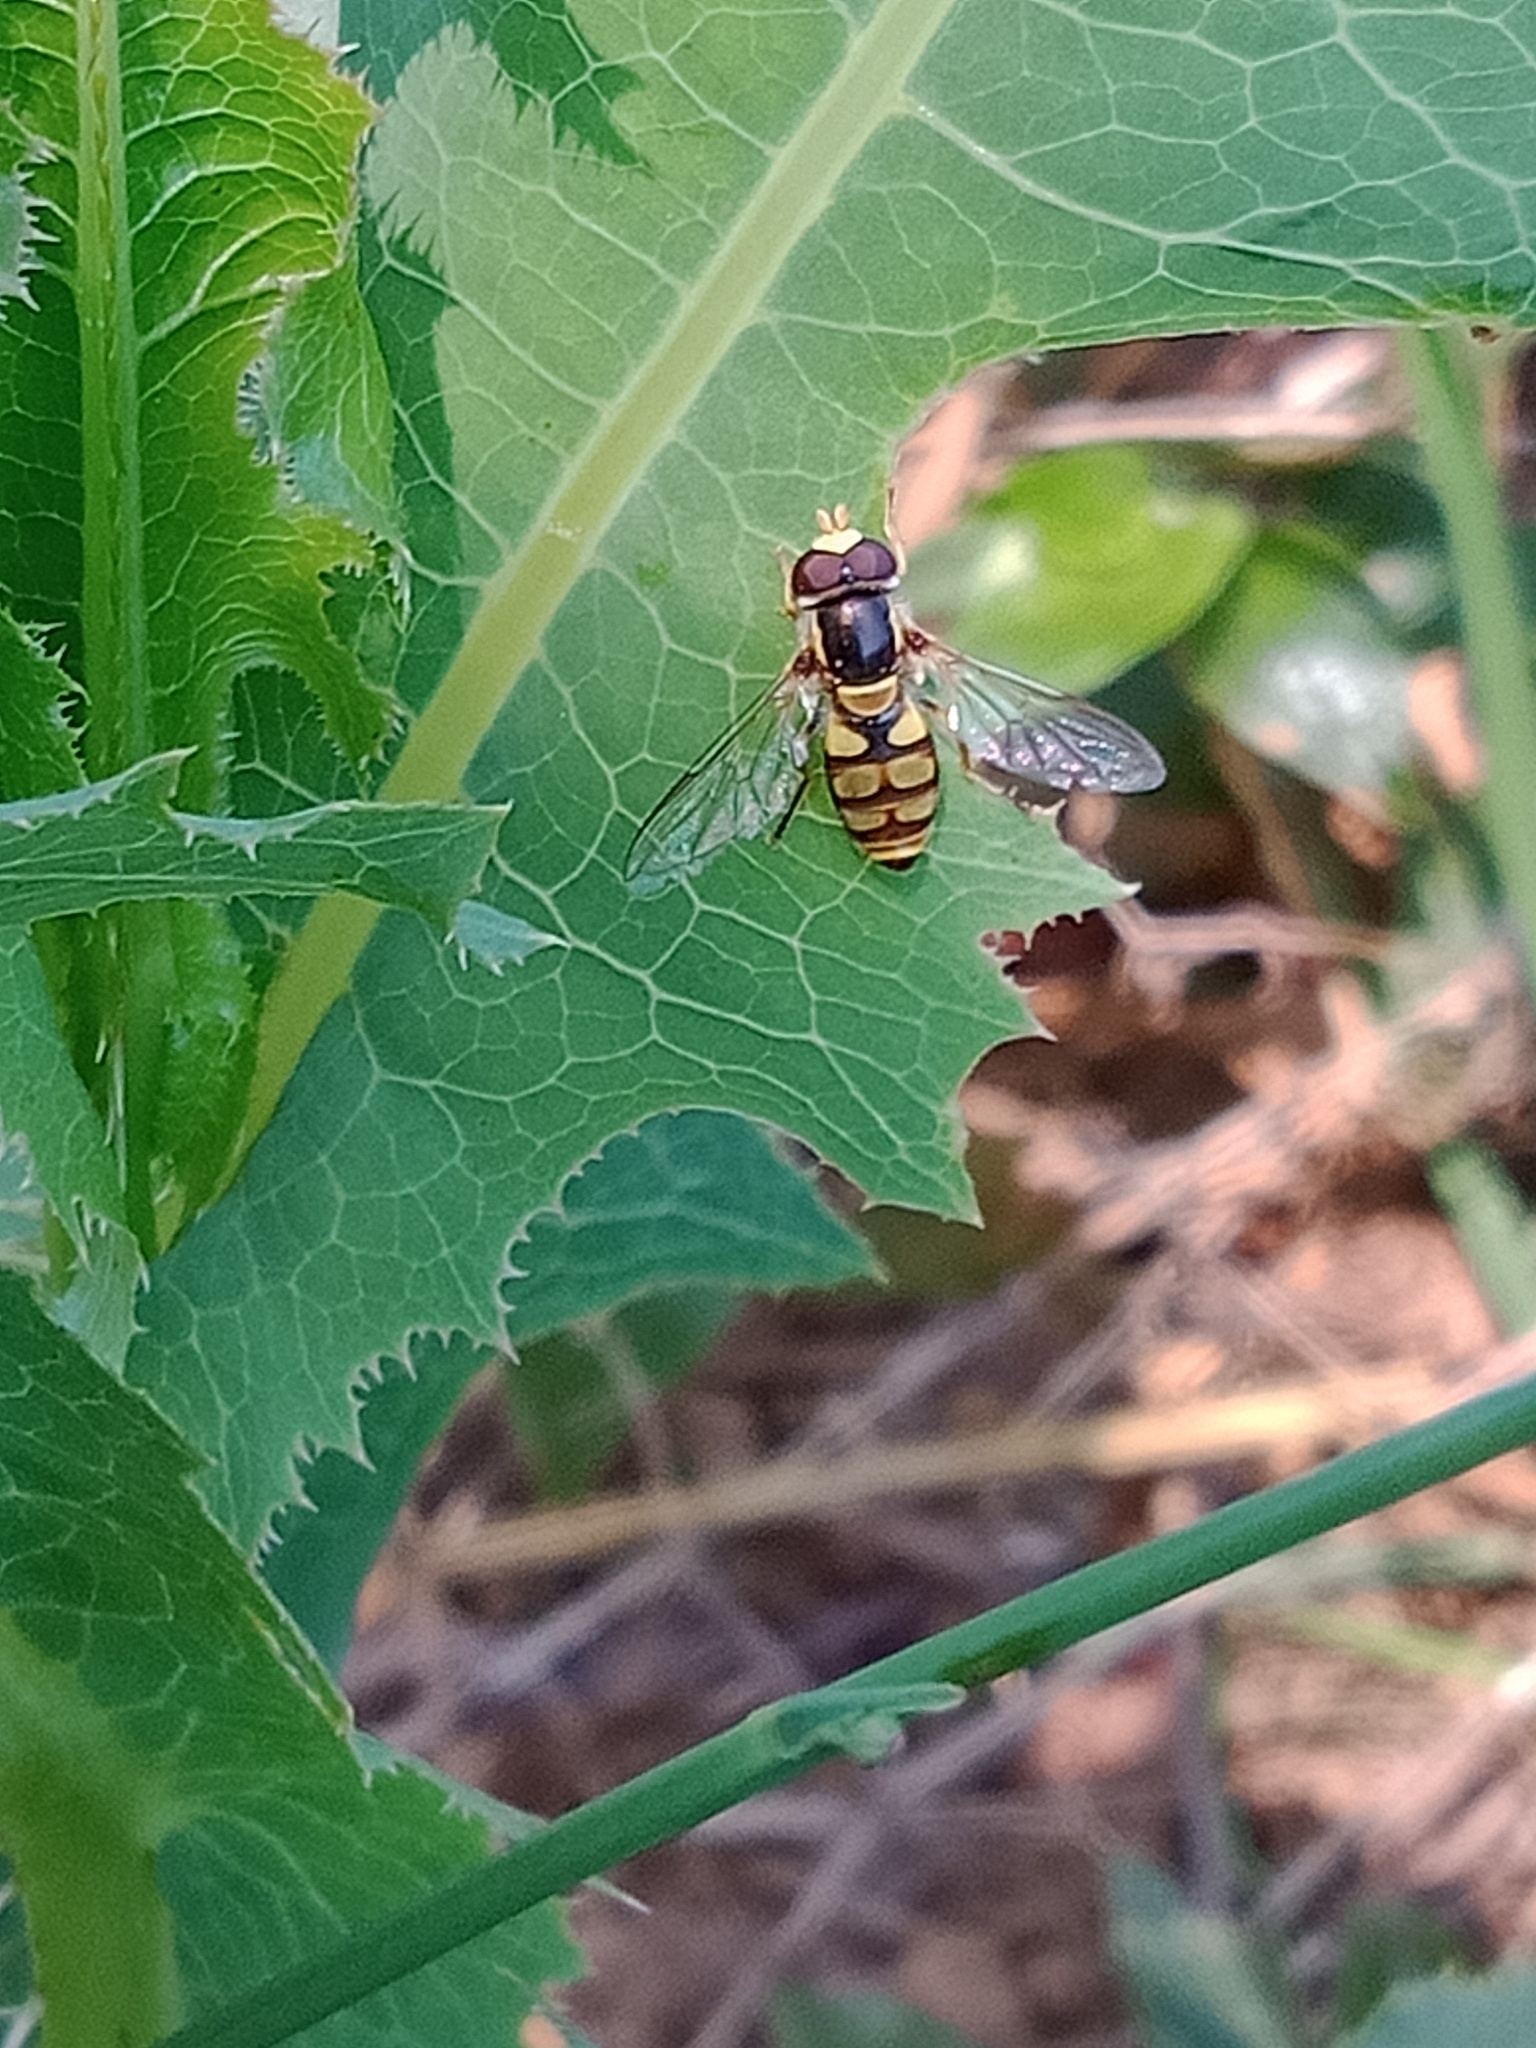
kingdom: Animalia
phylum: Arthropoda
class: Insecta
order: Diptera
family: Syrphidae
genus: Simosyrphus
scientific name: Simosyrphus grandicornis
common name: Hoverfly
